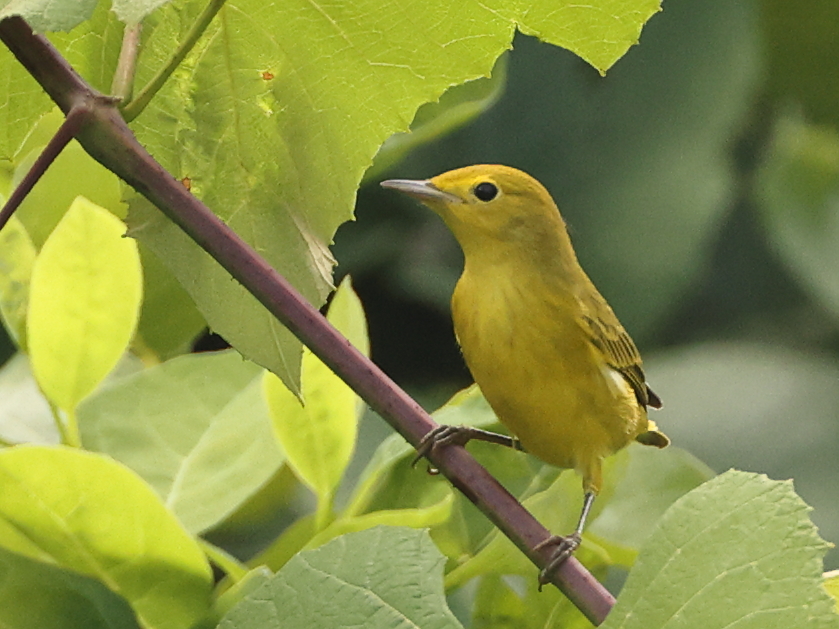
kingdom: Animalia
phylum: Chordata
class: Aves
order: Passeriformes
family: Parulidae
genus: Setophaga
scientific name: Setophaga petechia
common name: Yellow warbler
